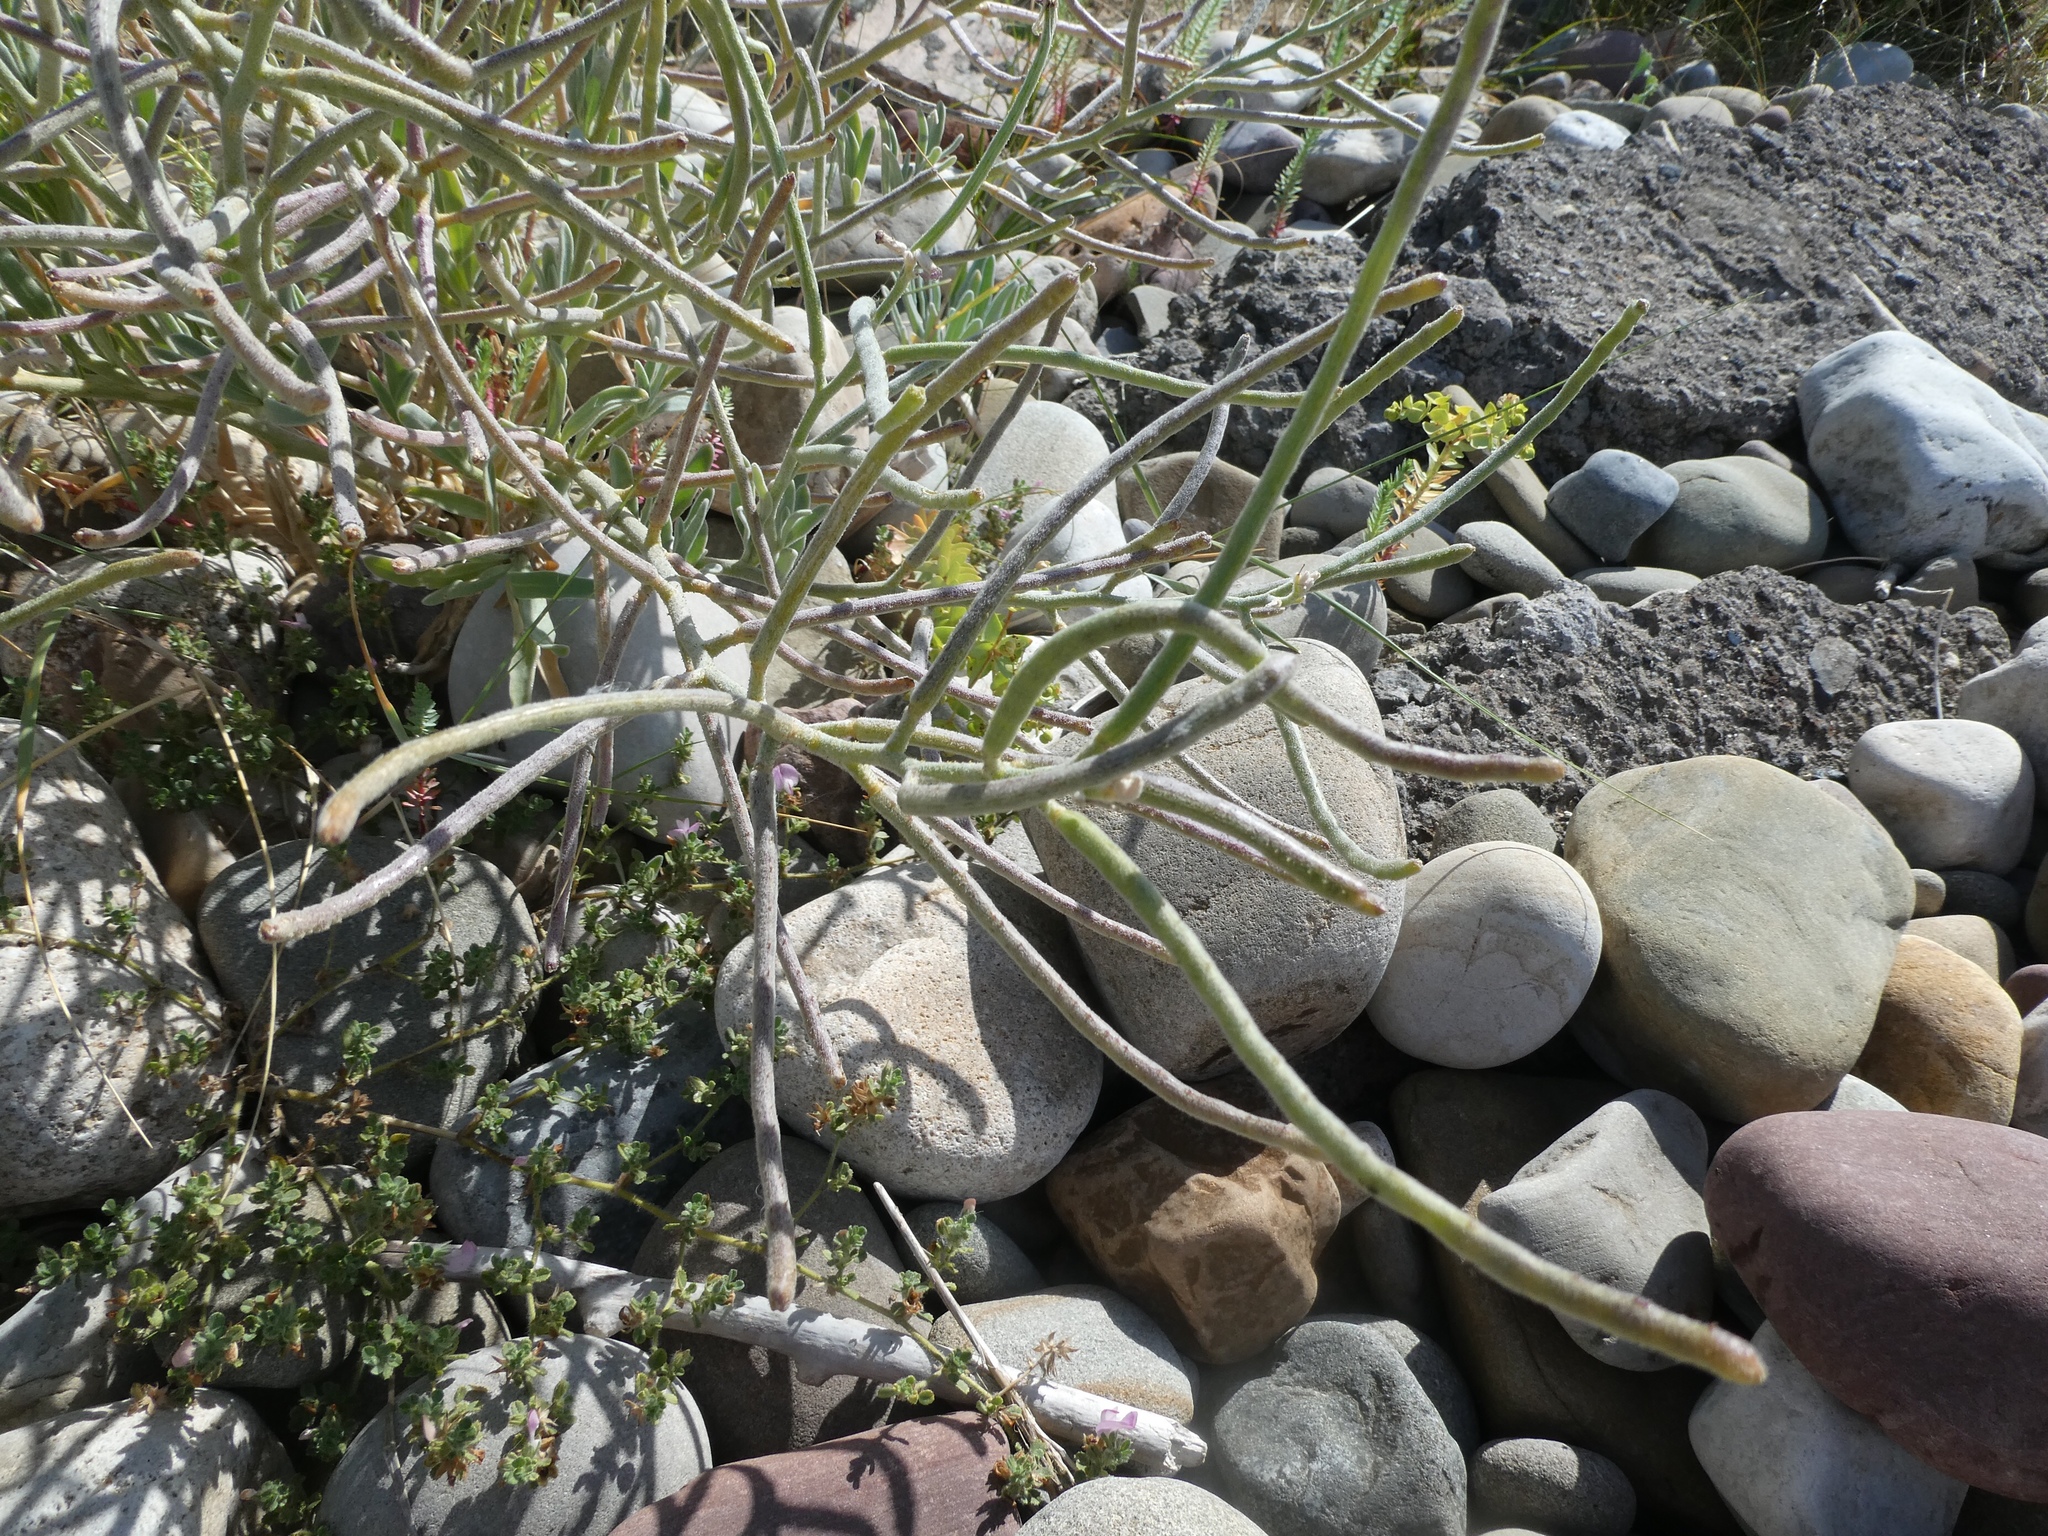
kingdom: Plantae
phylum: Tracheophyta
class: Magnoliopsida
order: Brassicales
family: Brassicaceae
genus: Matthiola
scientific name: Matthiola sinuata
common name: Sea stock
